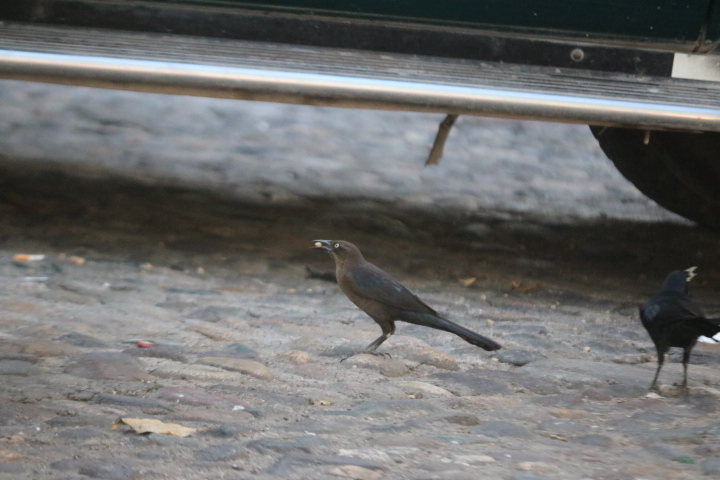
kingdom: Animalia
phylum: Chordata
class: Aves
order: Passeriformes
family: Icteridae
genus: Quiscalus
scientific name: Quiscalus mexicanus
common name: Great-tailed grackle
